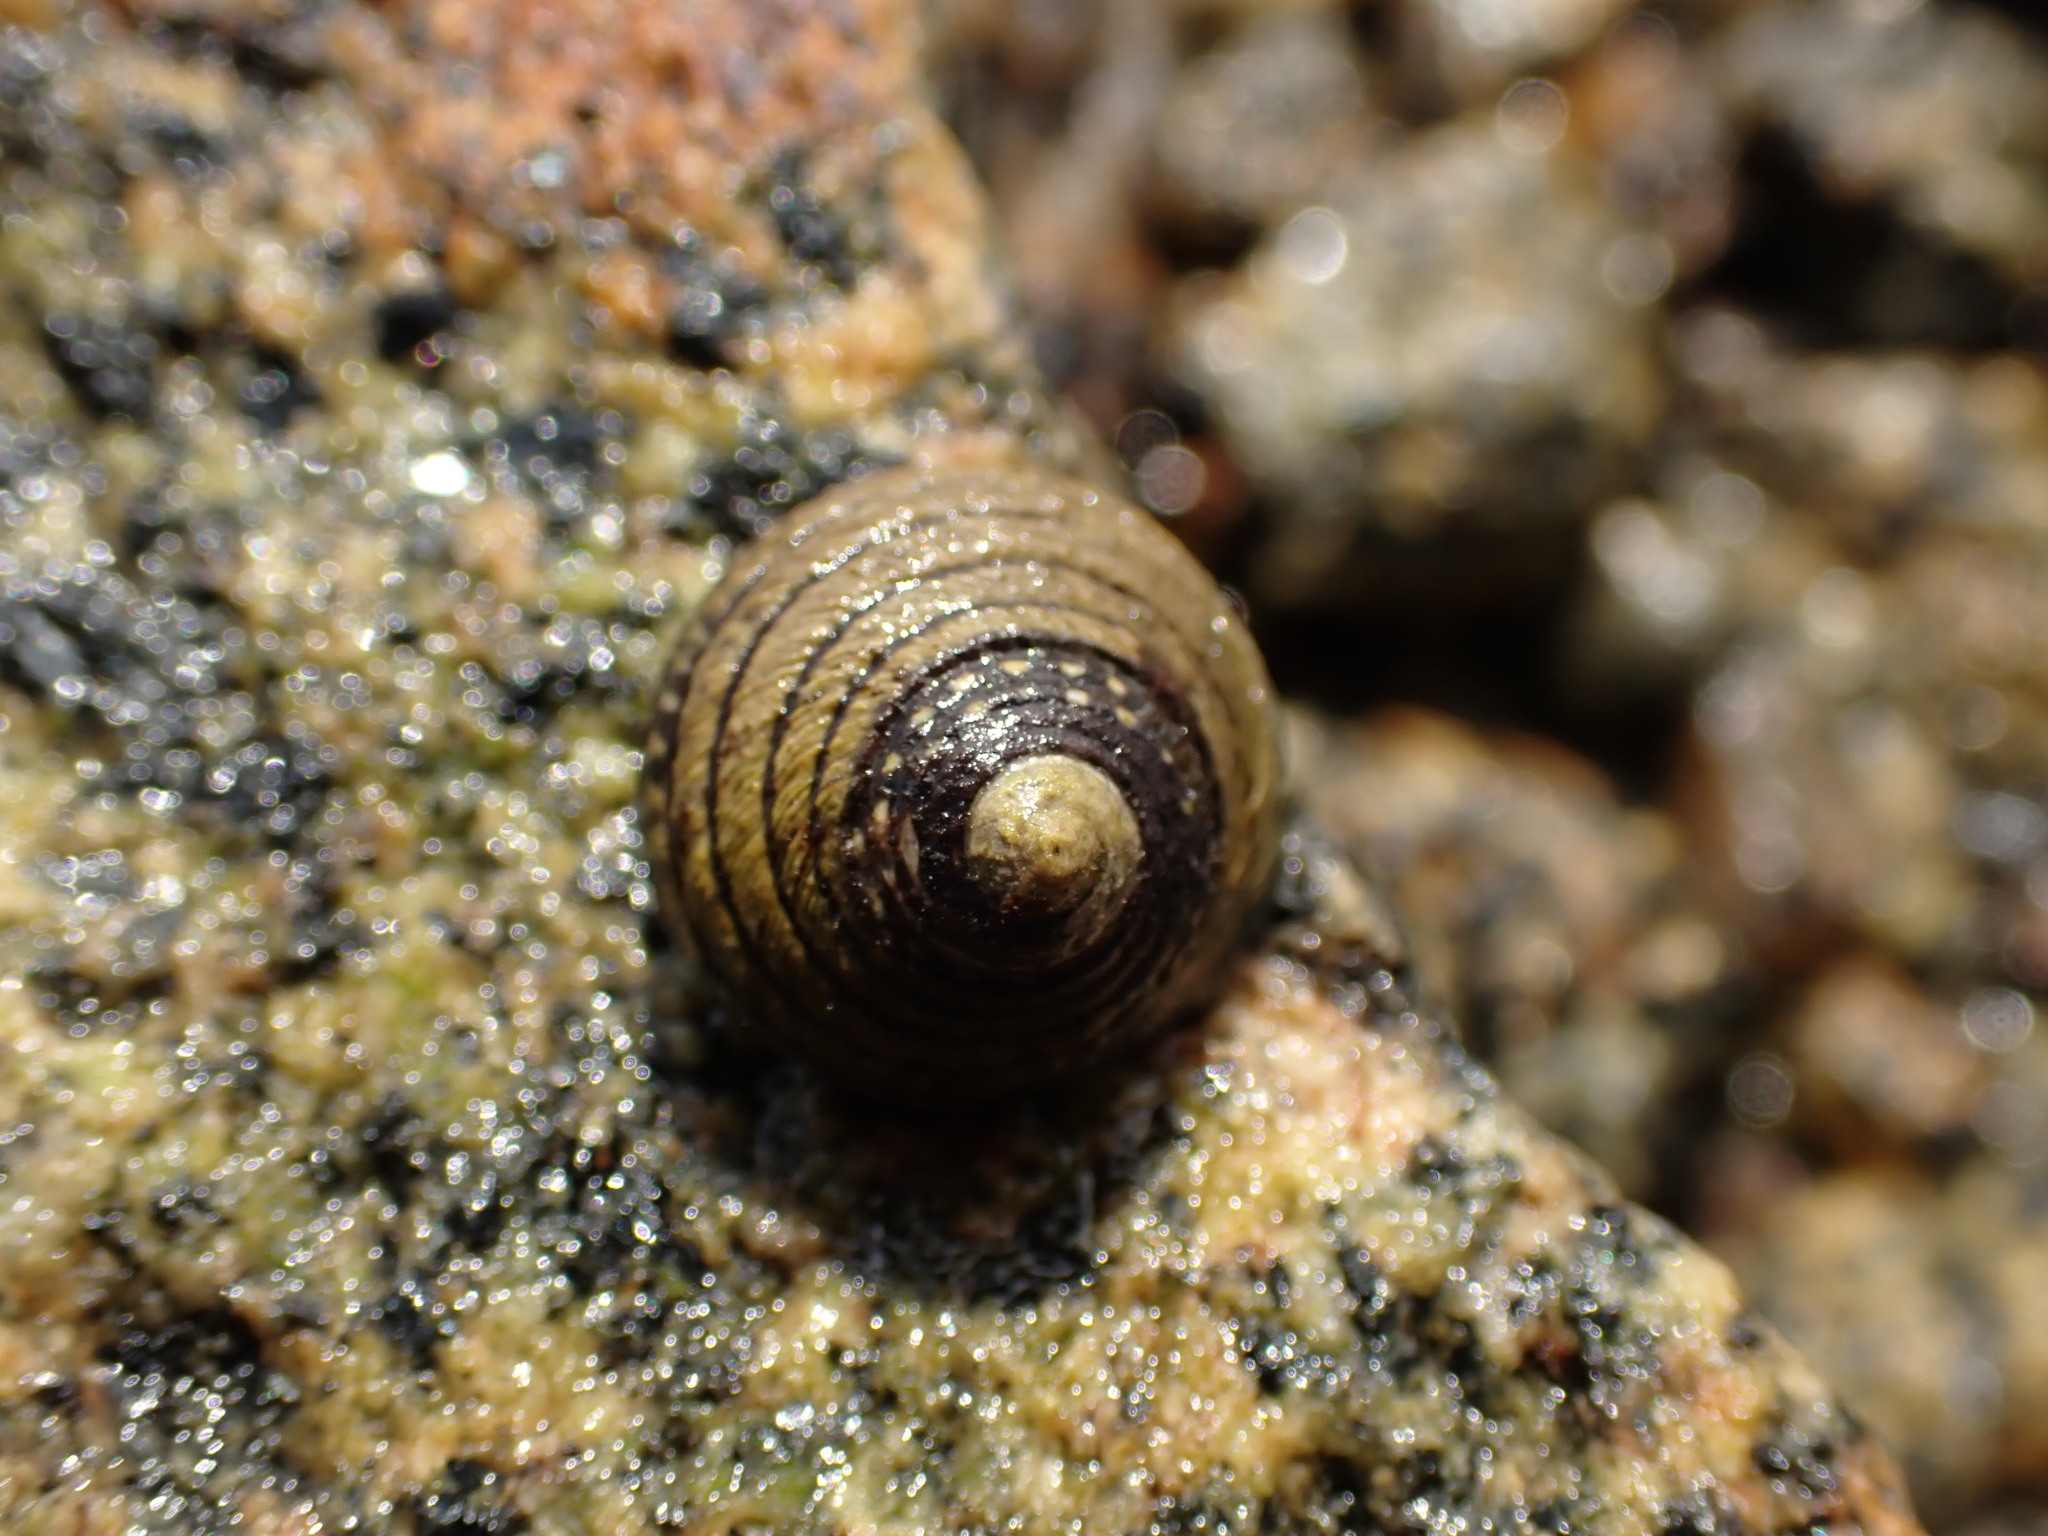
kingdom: Animalia
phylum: Mollusca
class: Gastropoda
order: Trochida
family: Trochidae
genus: Diloma
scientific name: Diloma aethiops
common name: Scorched monodont
